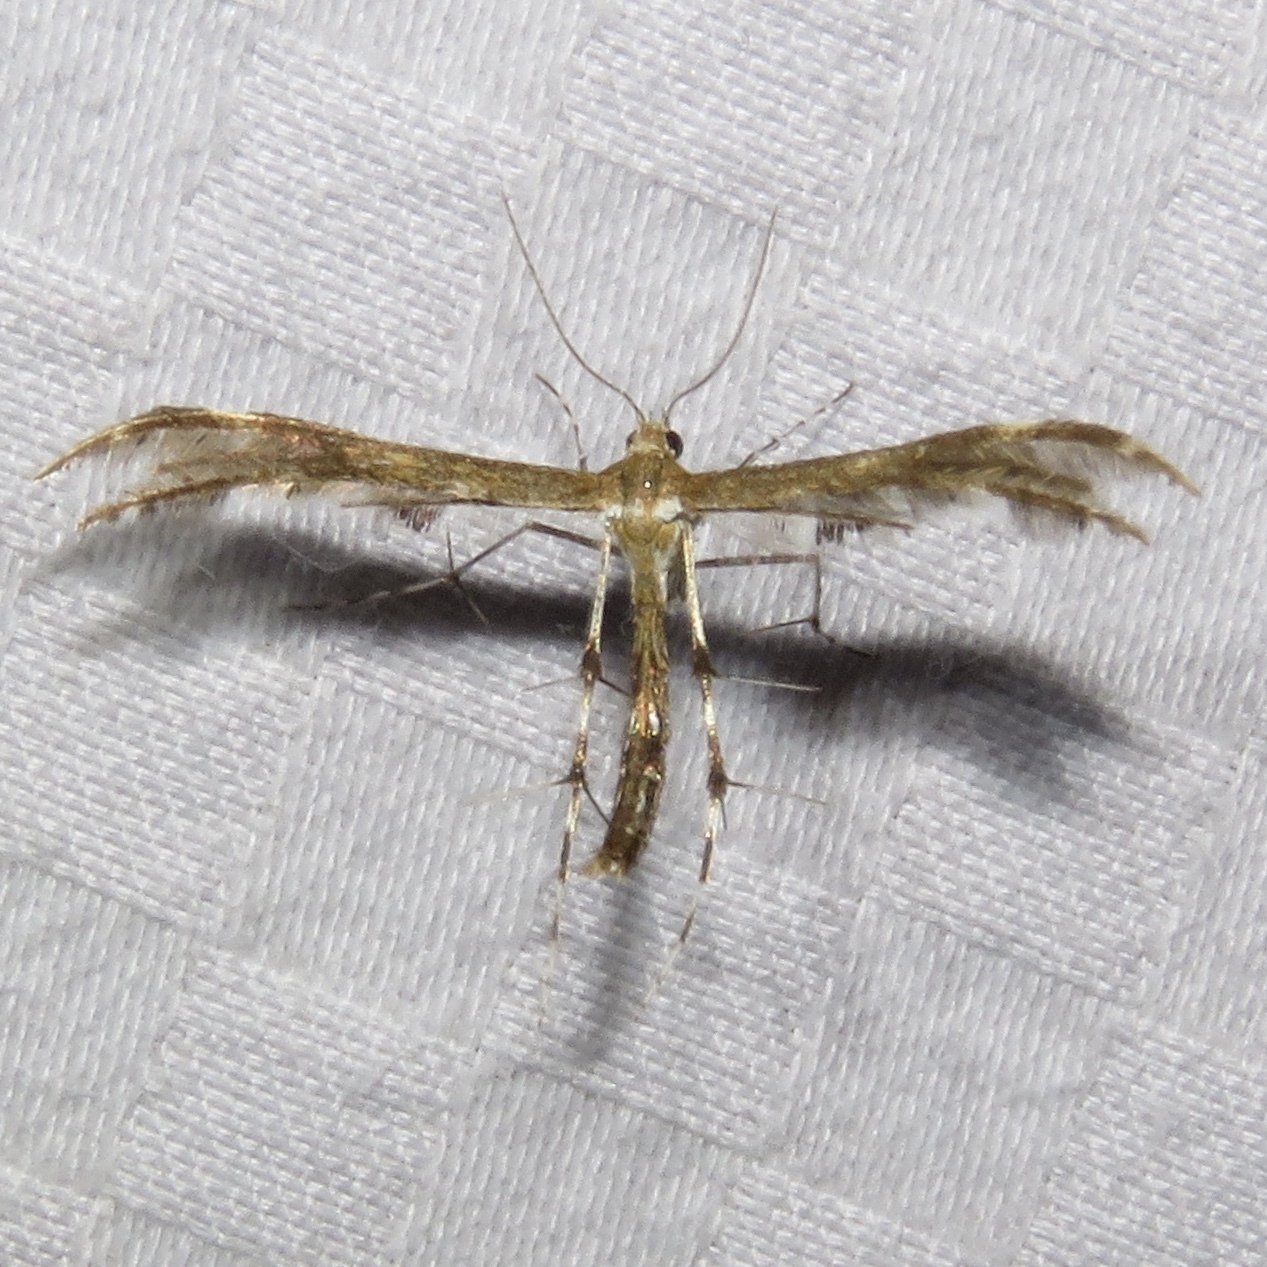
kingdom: Animalia
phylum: Arthropoda
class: Insecta
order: Lepidoptera
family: Pterophoridae
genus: Dejongia
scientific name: Dejongia lobidactylus
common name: Lobed plume moth
